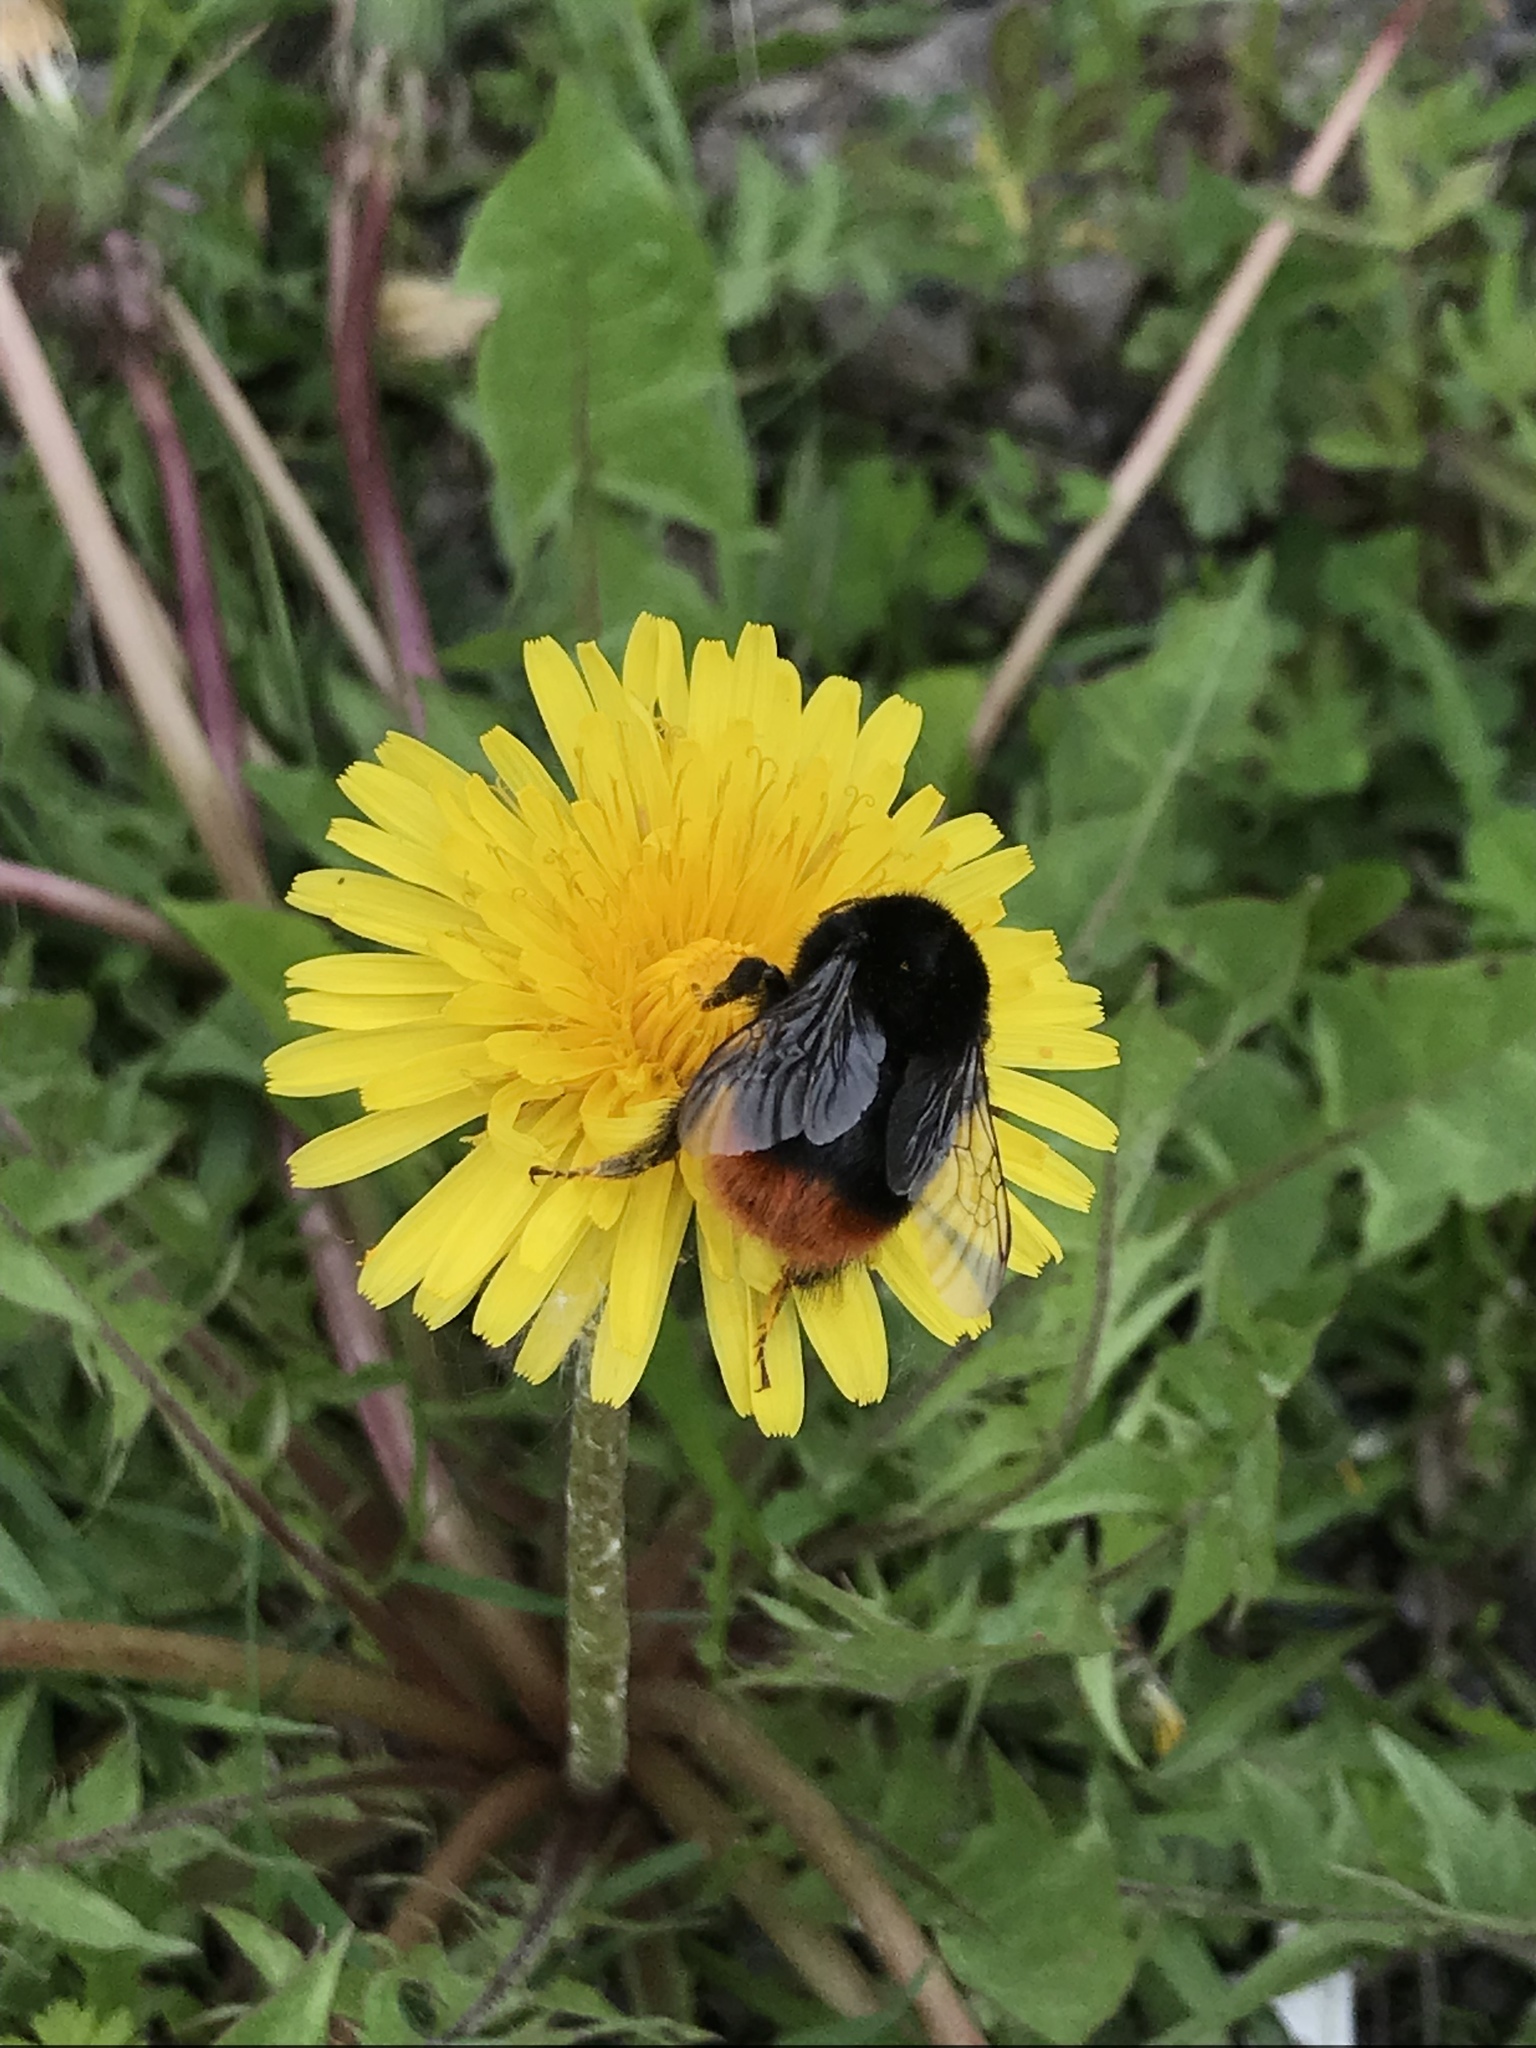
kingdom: Animalia
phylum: Arthropoda
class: Insecta
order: Hymenoptera
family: Apidae
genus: Bombus
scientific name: Bombus lapidarius
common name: Large red-tailed humble-bee
